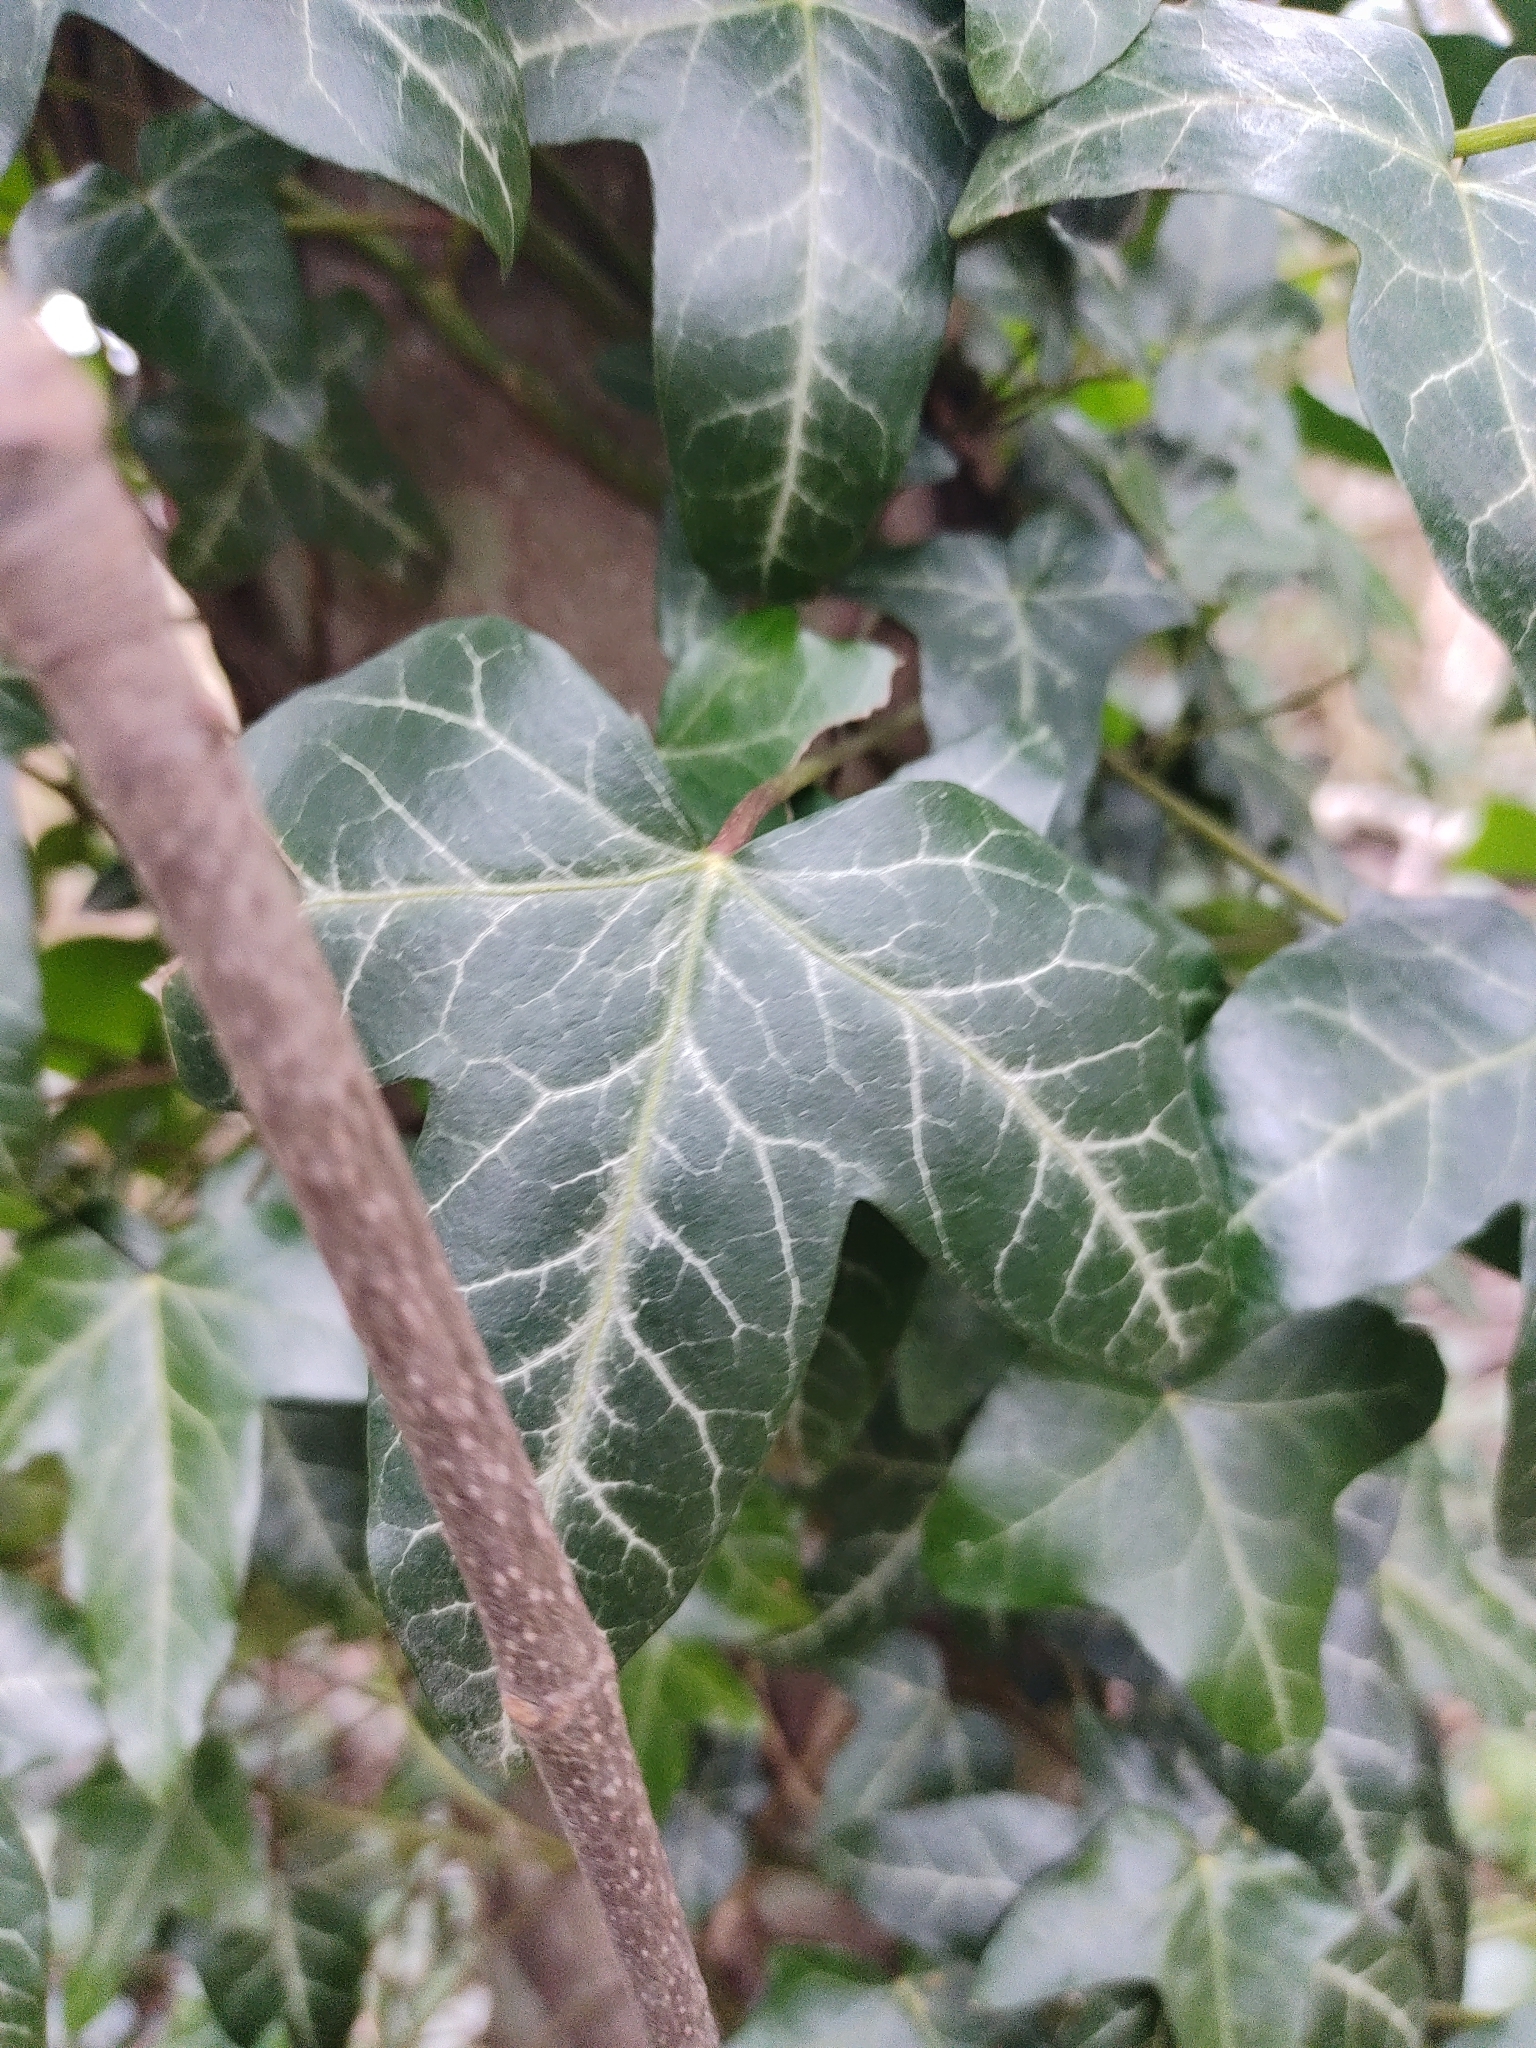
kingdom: Plantae
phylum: Tracheophyta
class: Magnoliopsida
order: Apiales
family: Araliaceae
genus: Hedera
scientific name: Hedera helix
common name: Ivy
